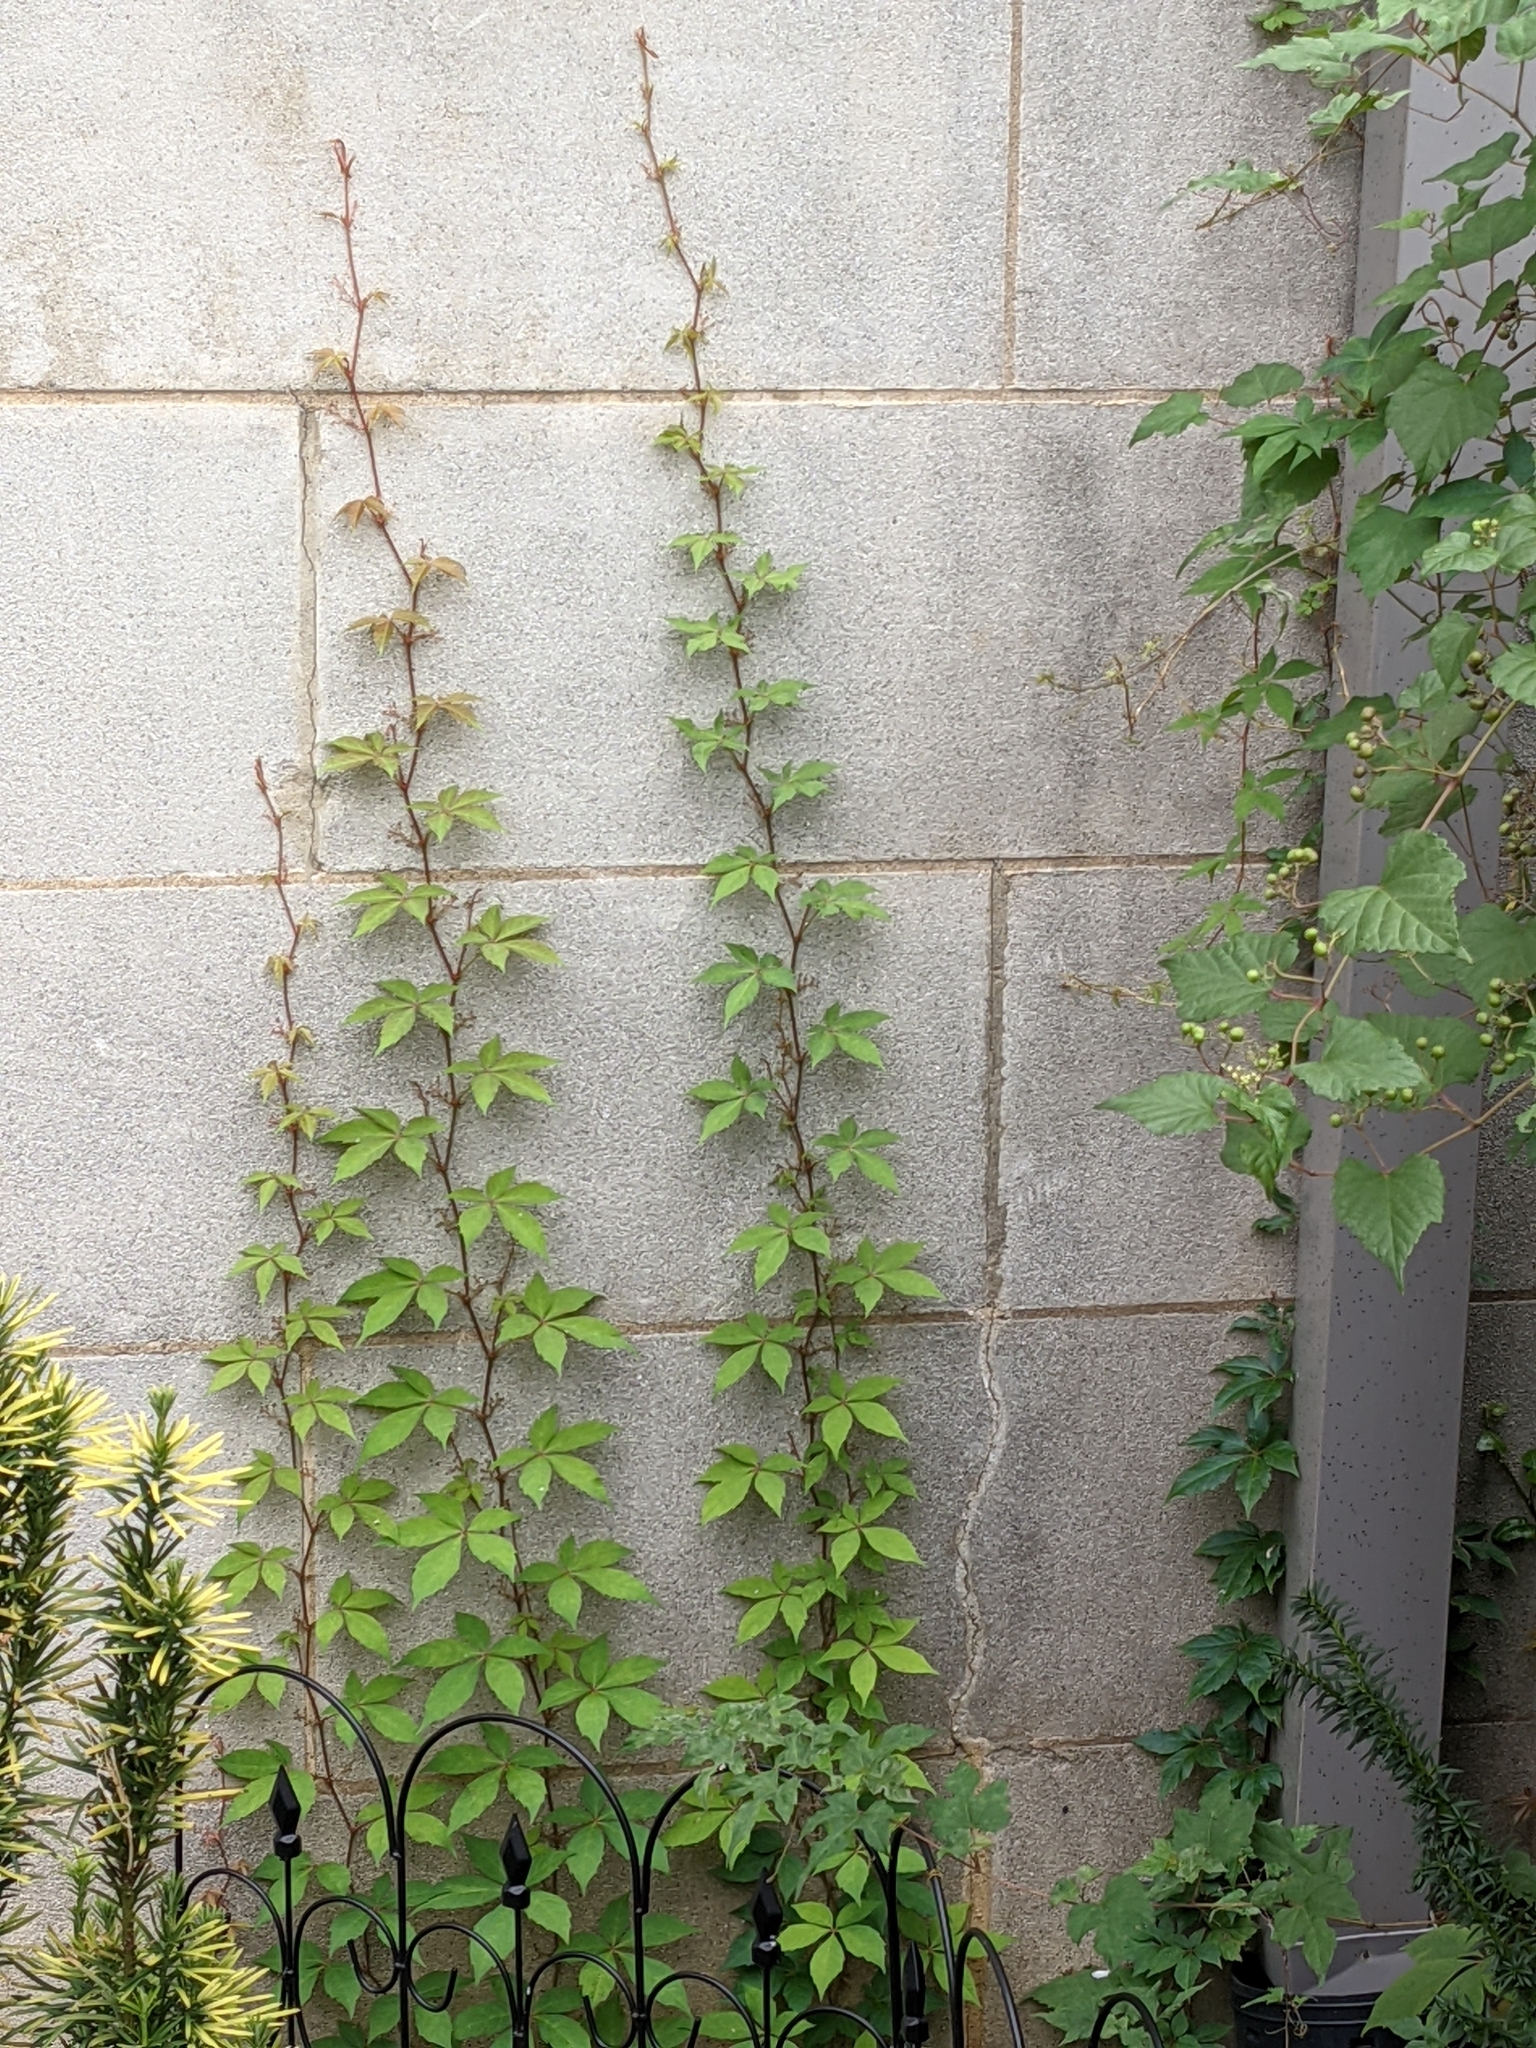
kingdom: Plantae
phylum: Tracheophyta
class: Magnoliopsida
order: Vitales
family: Vitaceae
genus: Parthenocissus
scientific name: Parthenocissus quinquefolia
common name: Virginia-creeper
